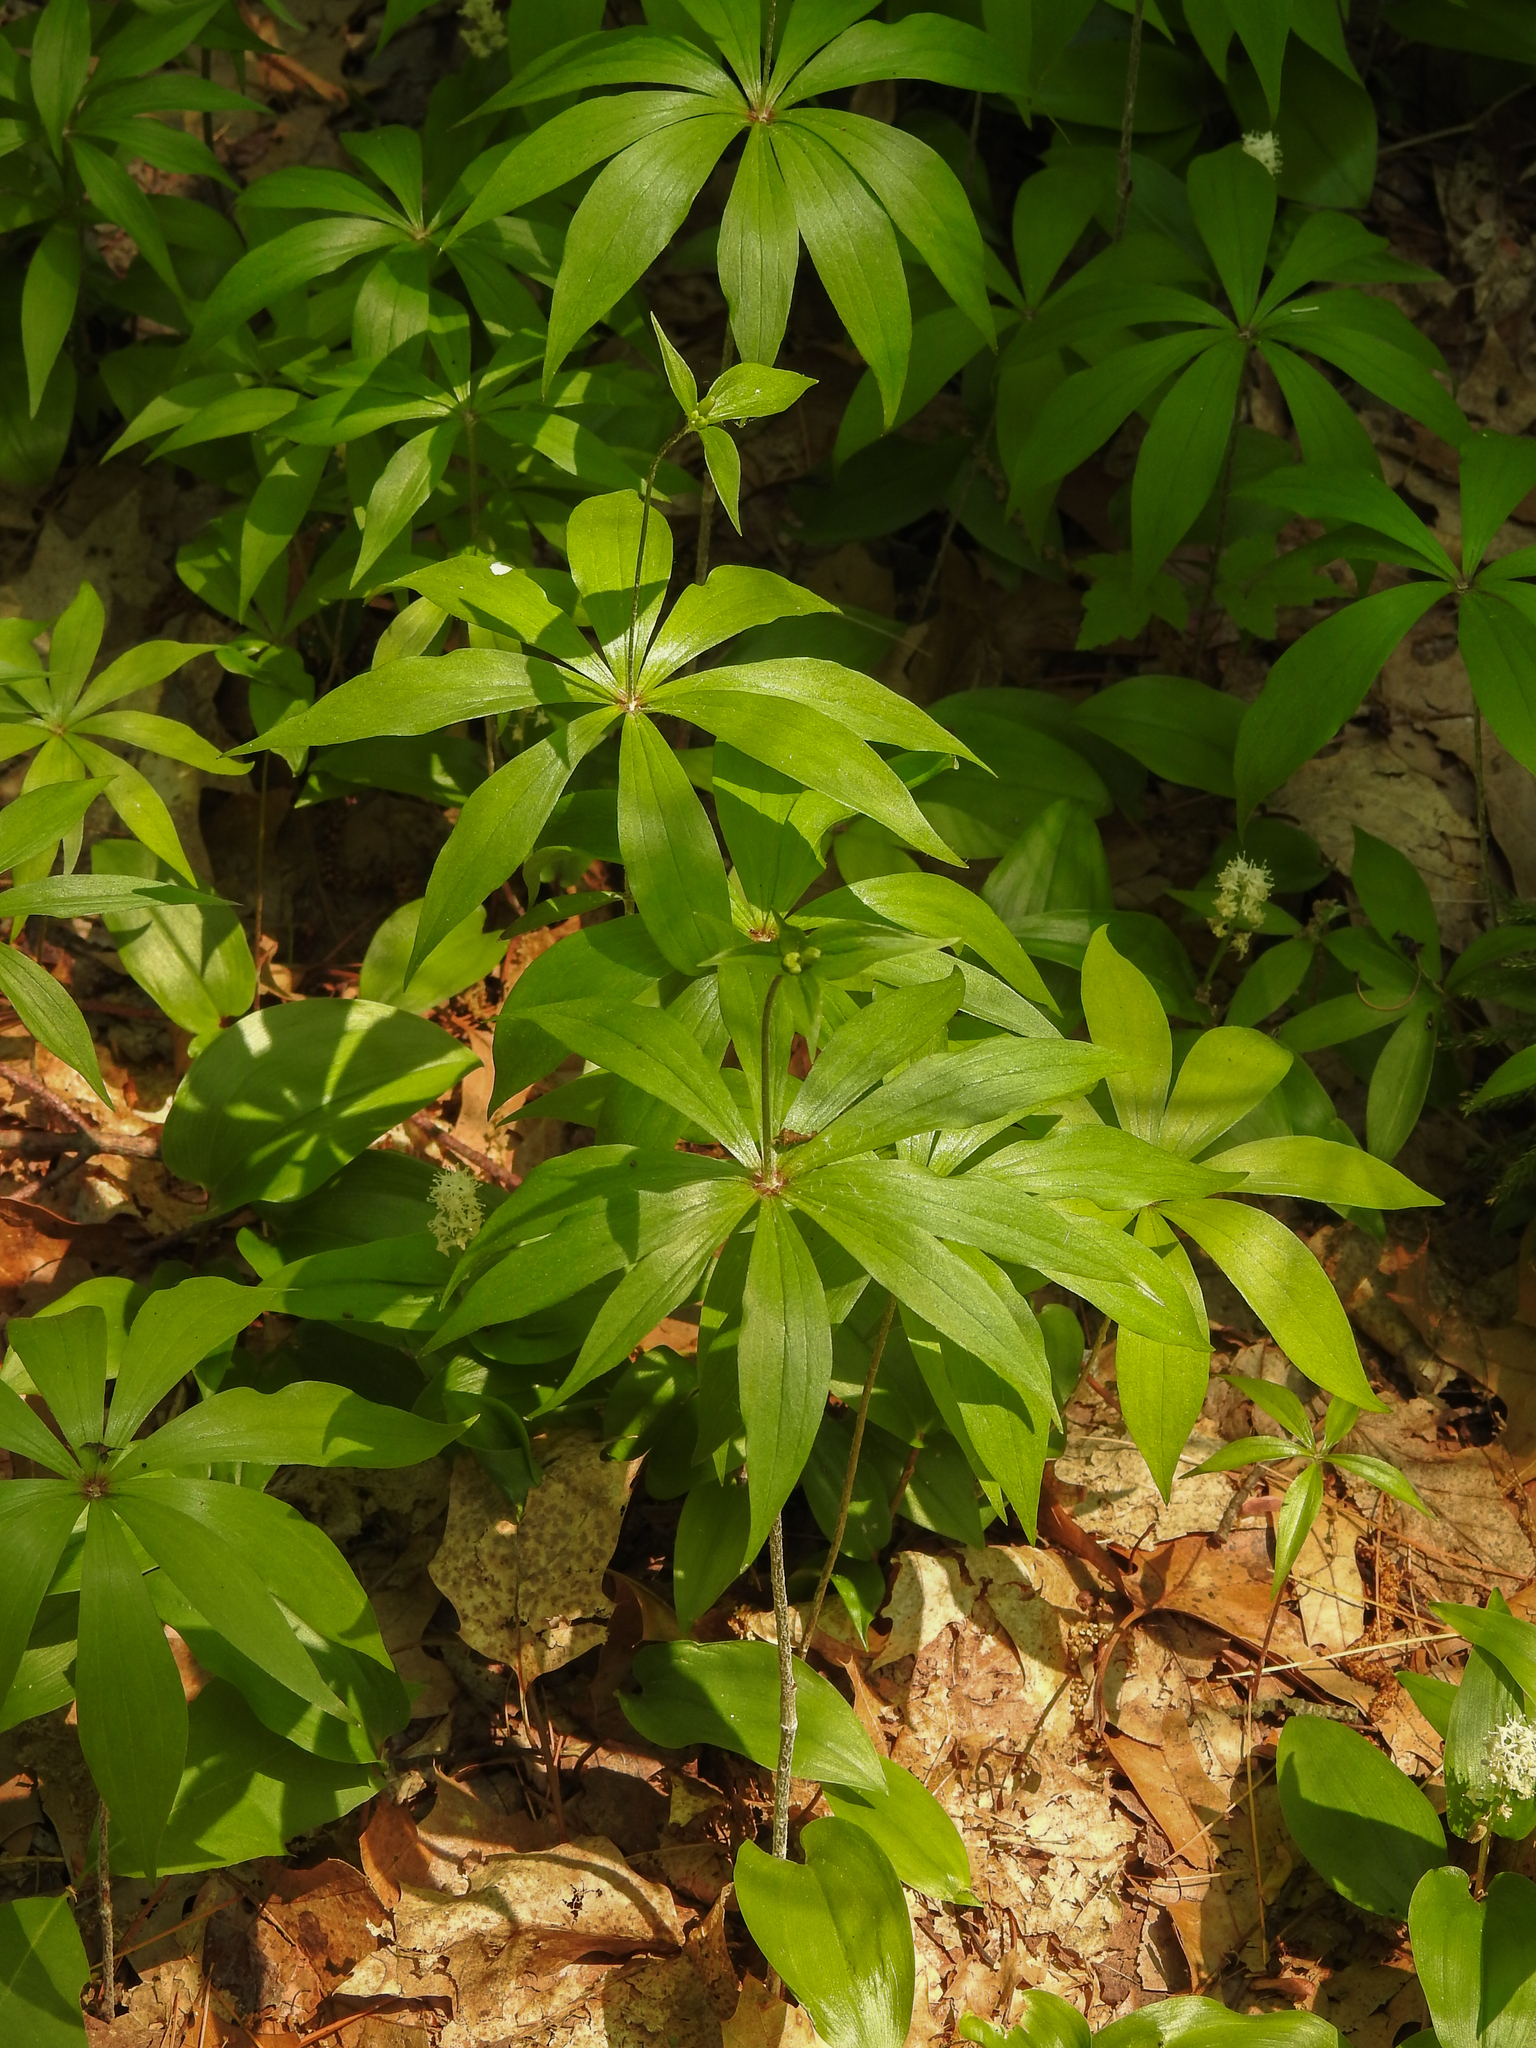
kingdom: Plantae
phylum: Tracheophyta
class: Liliopsida
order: Liliales
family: Liliaceae
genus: Medeola
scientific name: Medeola virginiana
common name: Indian cucumber-root
